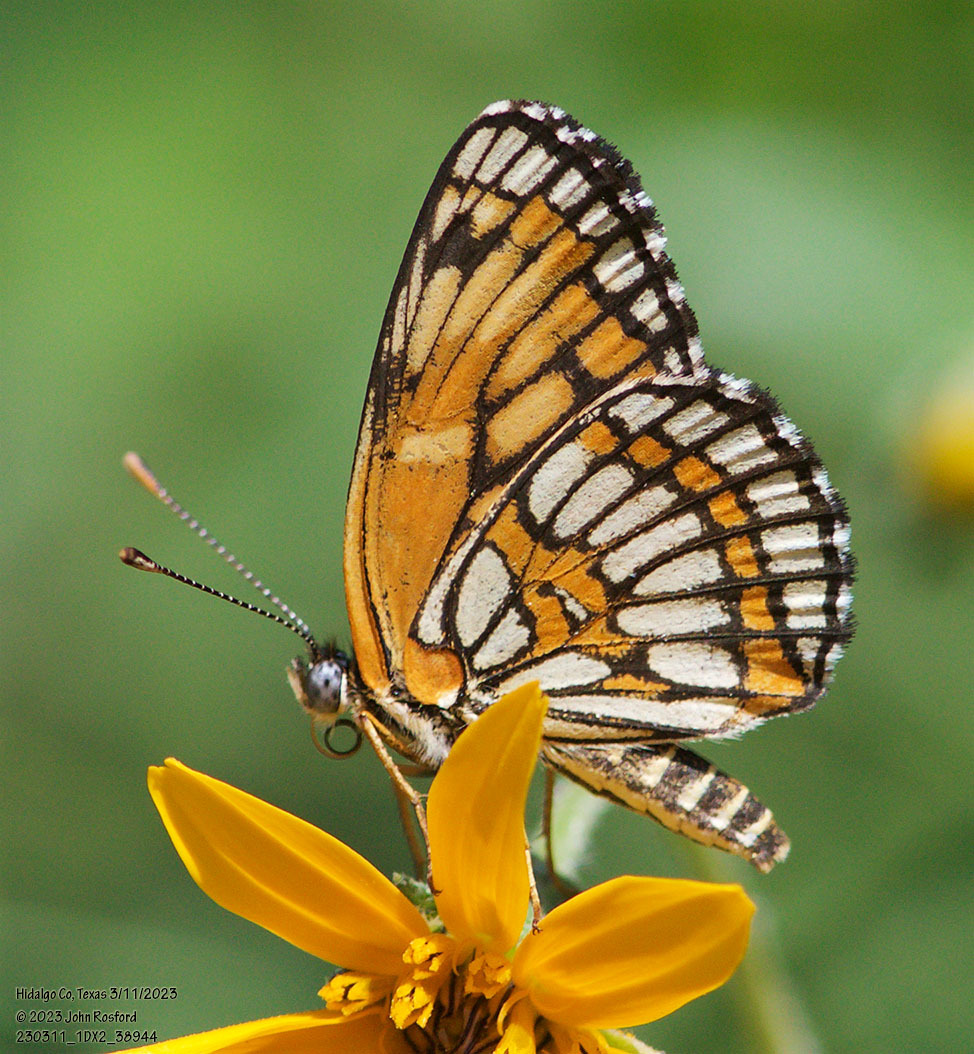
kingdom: Animalia
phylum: Arthropoda
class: Insecta
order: Lepidoptera
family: Nymphalidae
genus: Thessalia
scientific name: Thessalia theona
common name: Nymphalid moth
